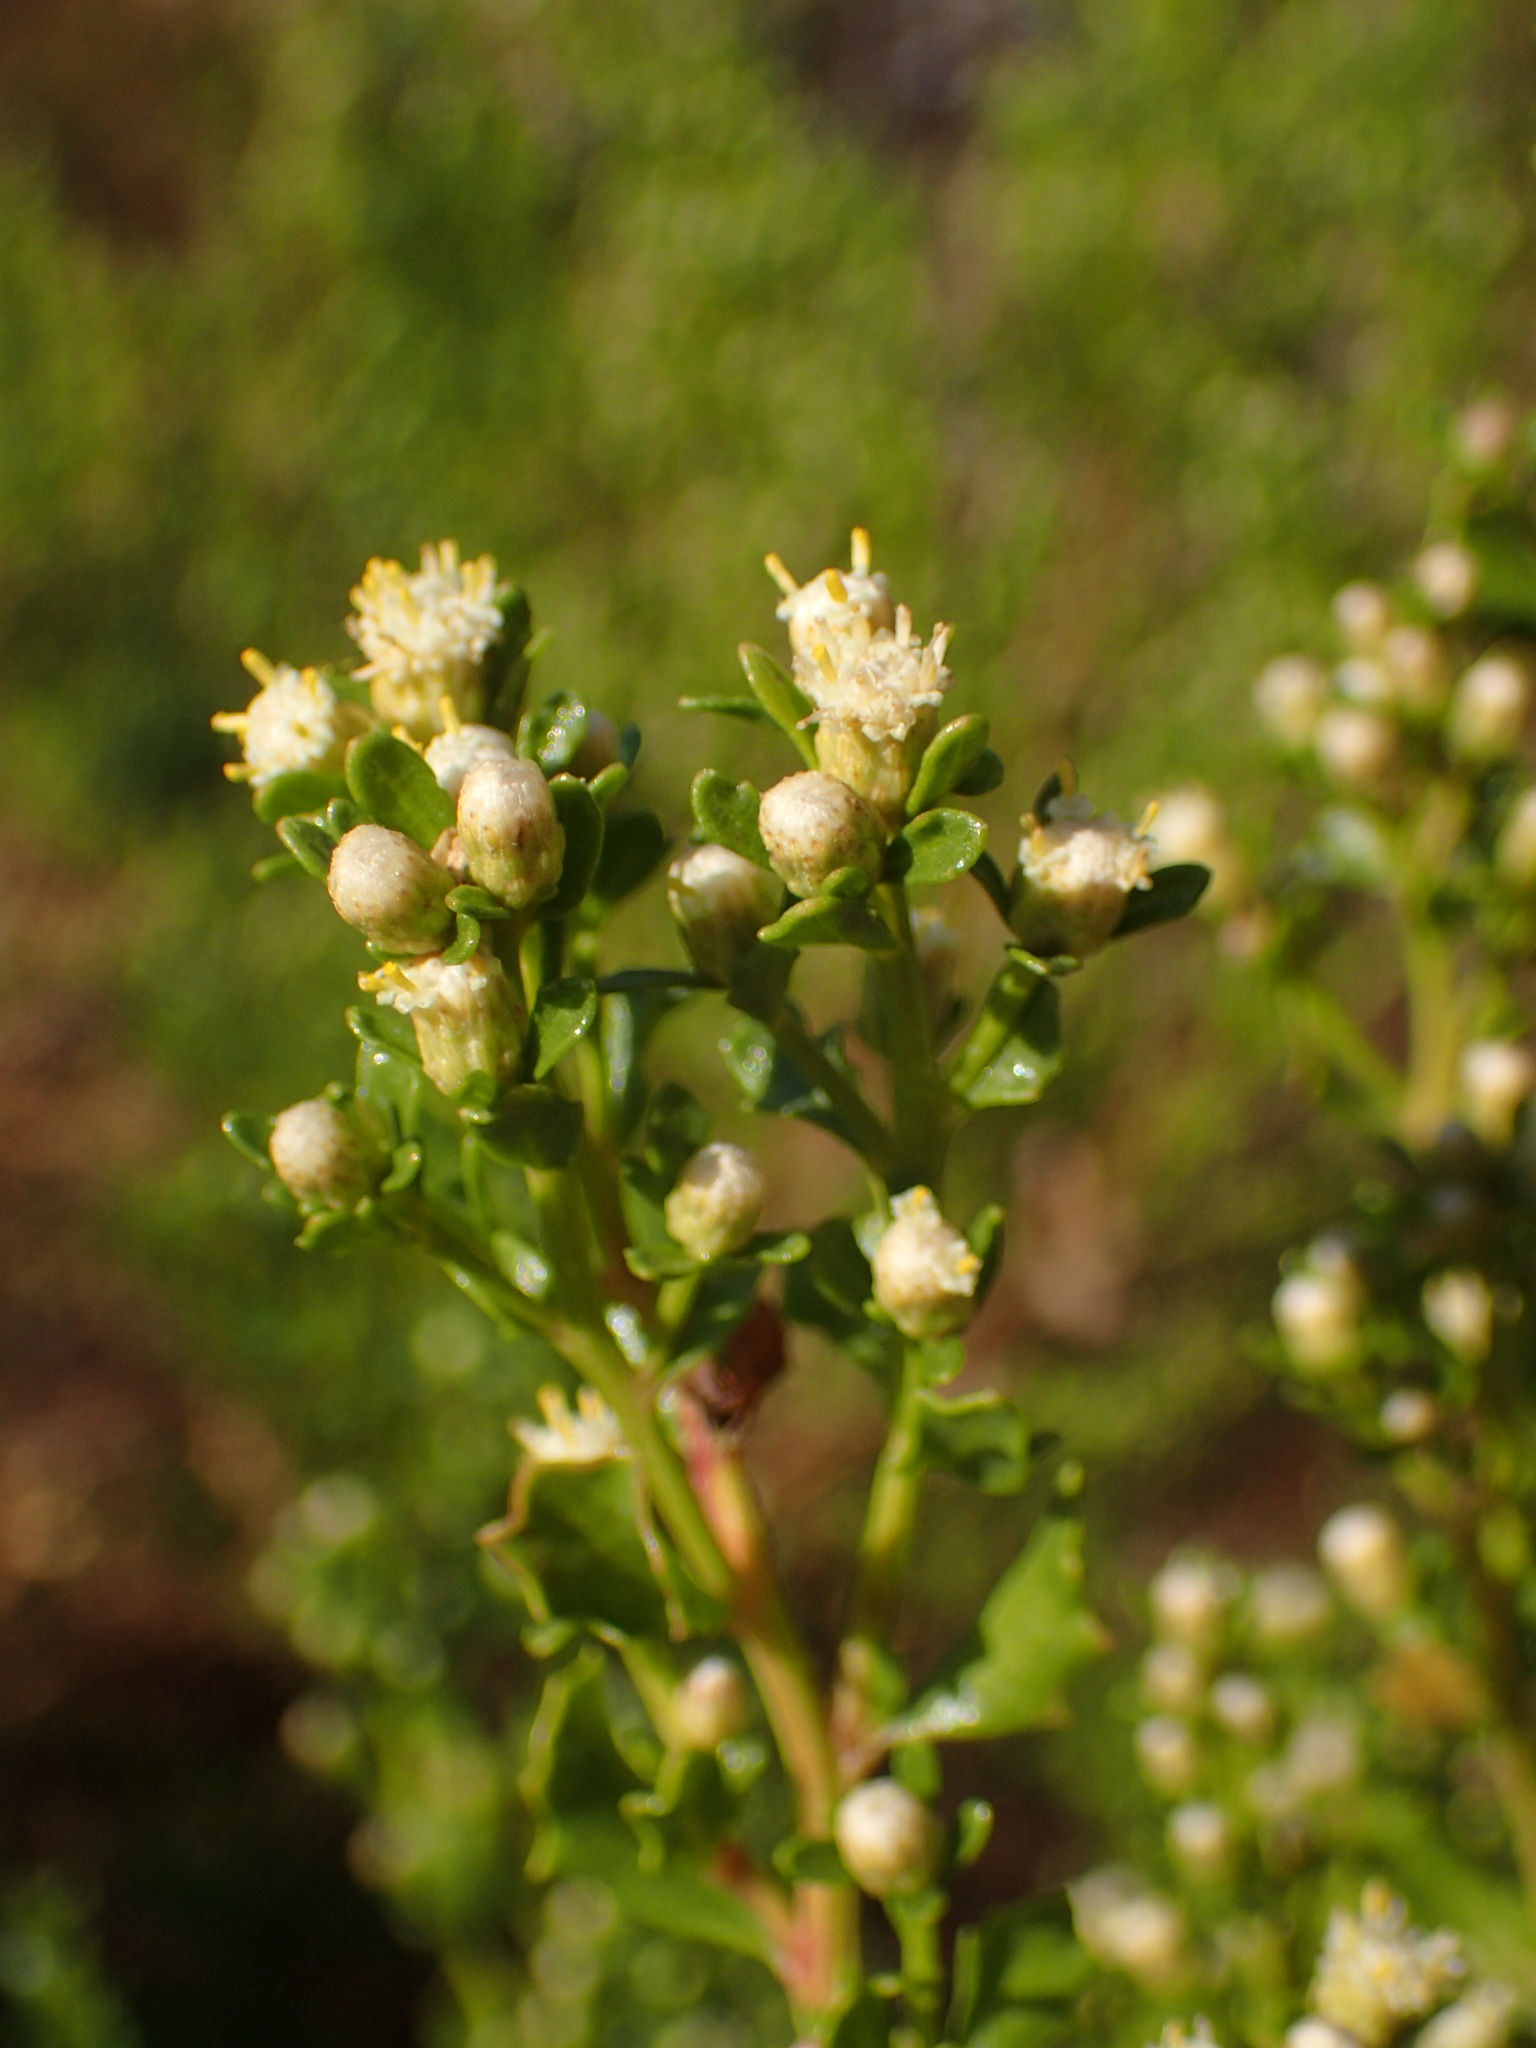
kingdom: Plantae
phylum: Tracheophyta
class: Magnoliopsida
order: Asterales
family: Asteraceae
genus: Baccharis
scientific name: Baccharis pilularis
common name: Coyotebrush
